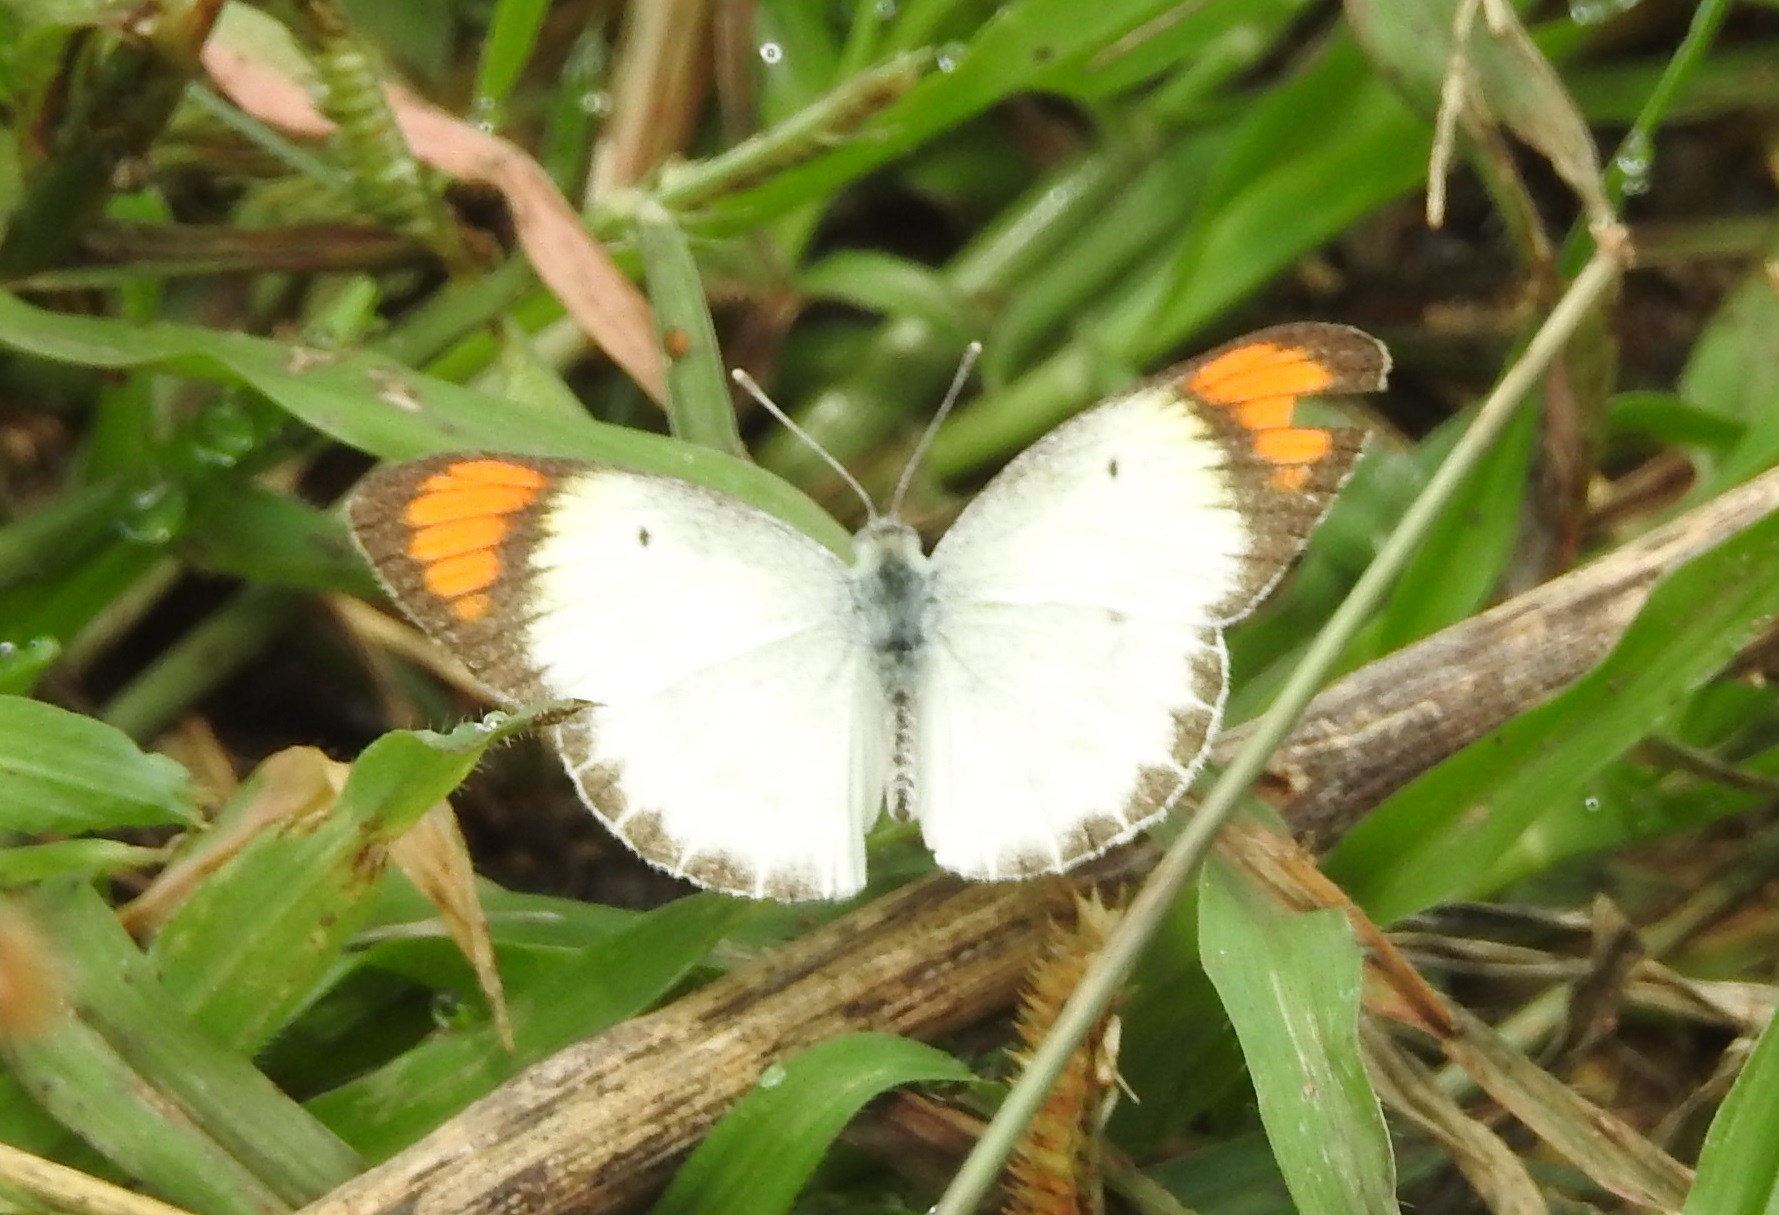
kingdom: Animalia
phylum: Arthropoda
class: Insecta
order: Lepidoptera
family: Pieridae
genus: Colotis
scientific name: Colotis etrida
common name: Little orange tip
